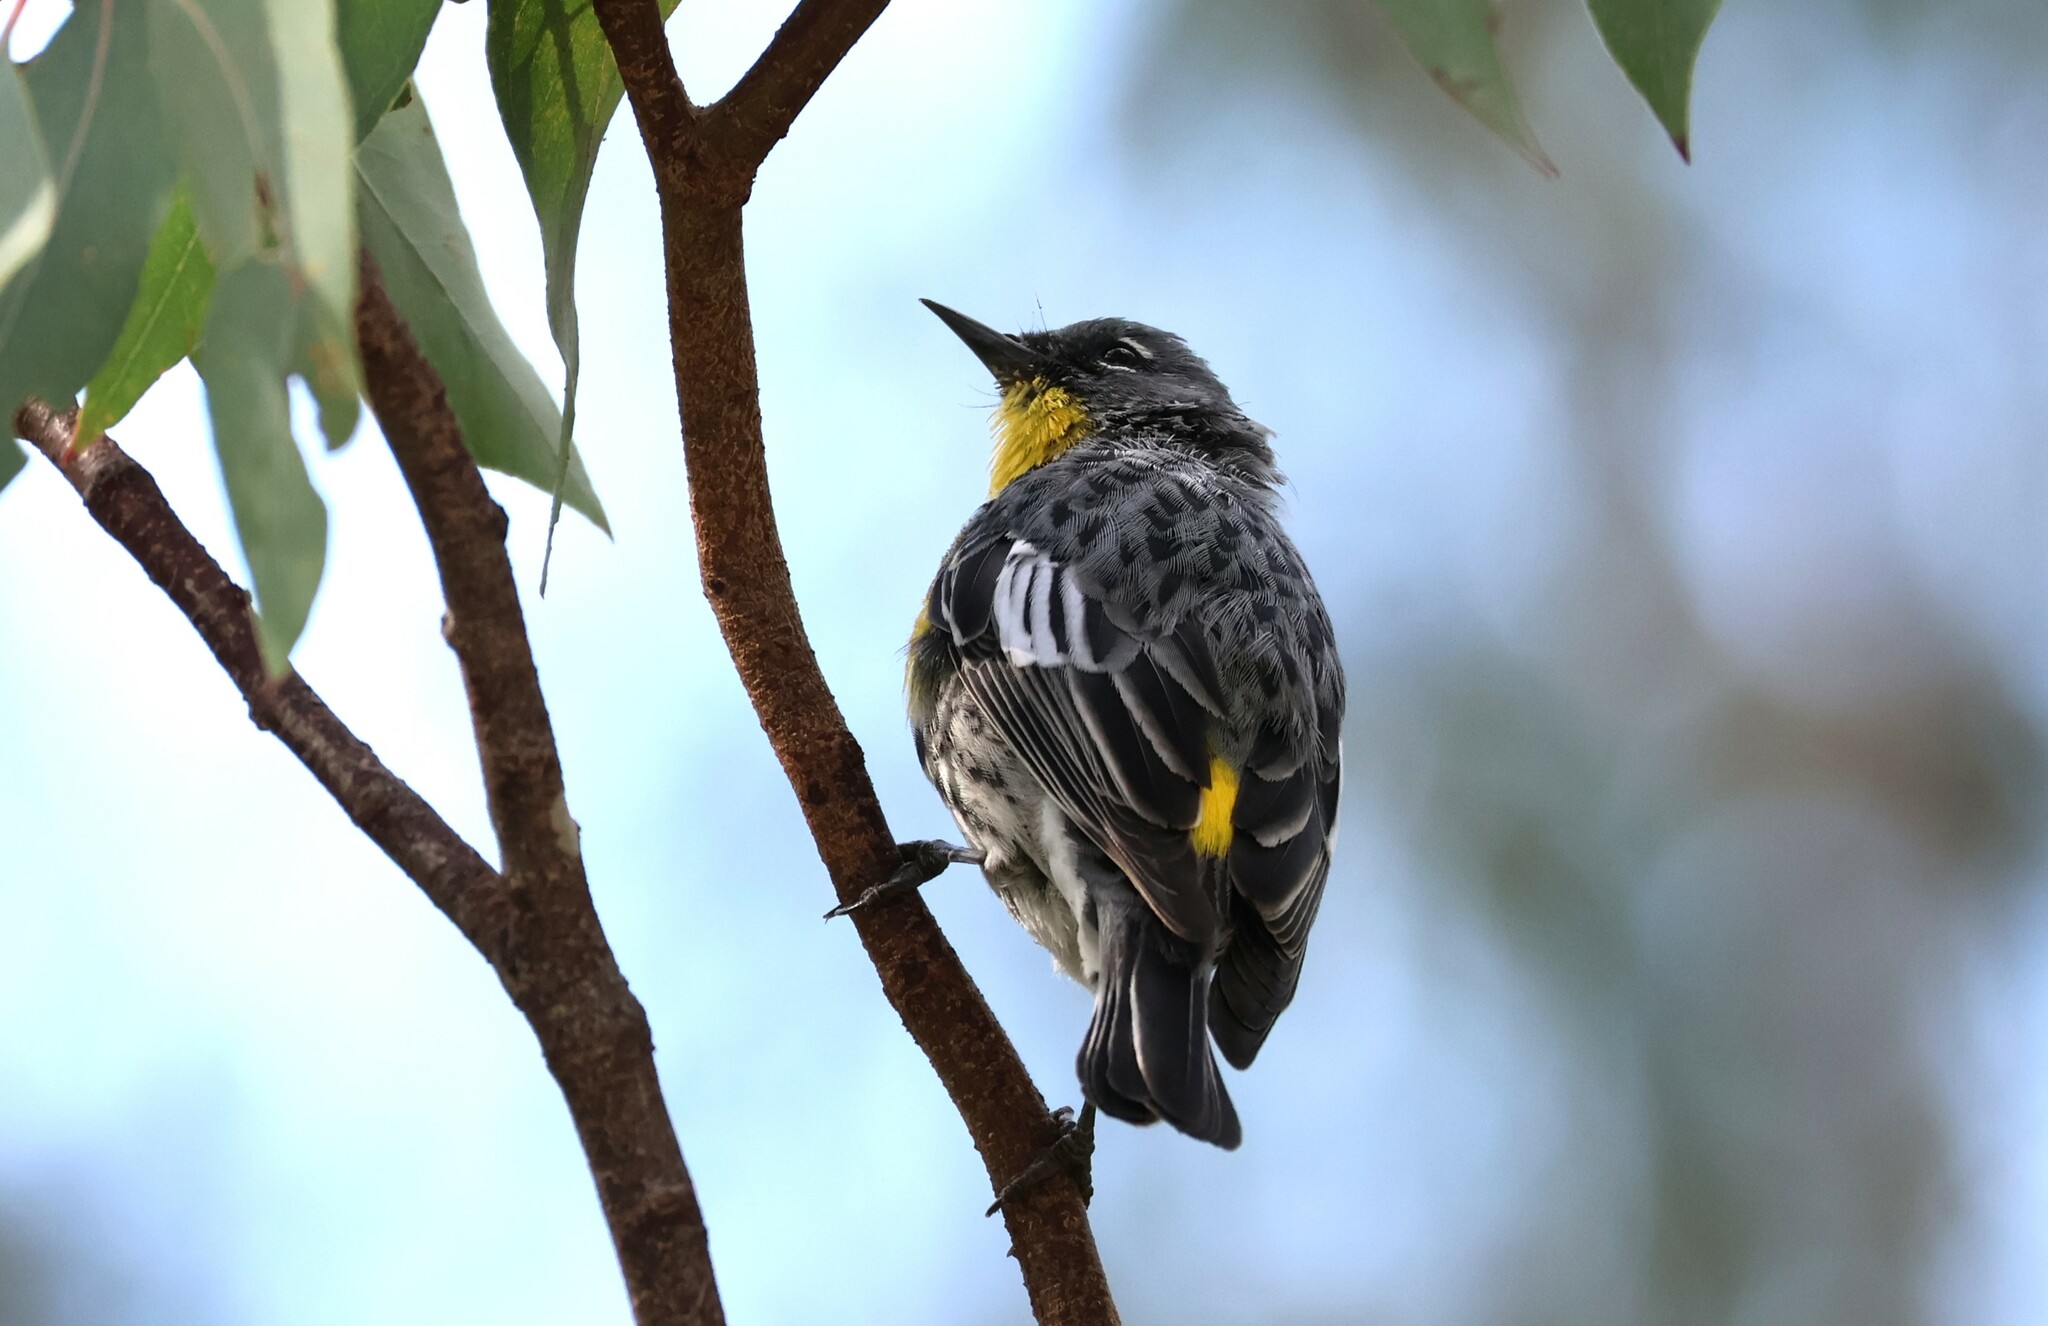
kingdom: Animalia
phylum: Chordata
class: Aves
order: Passeriformes
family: Parulidae
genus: Setophaga
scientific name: Setophaga auduboni
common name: Audubon's warbler
